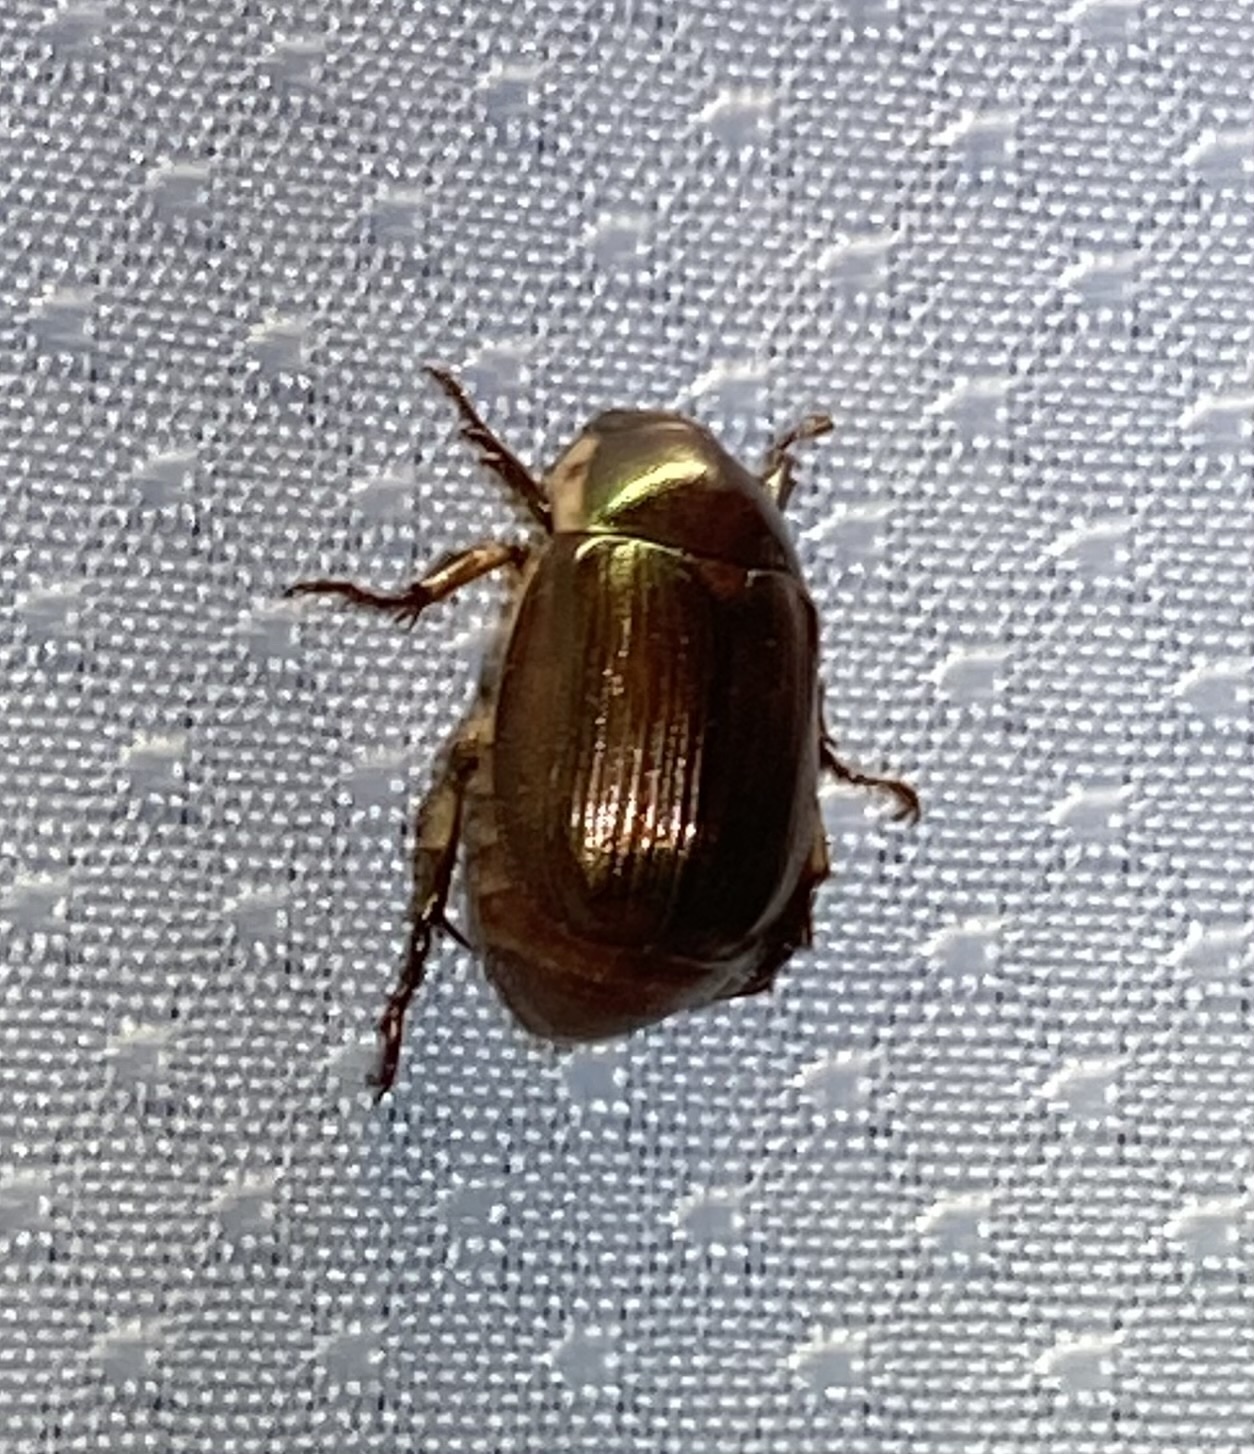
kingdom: Animalia
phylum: Arthropoda
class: Insecta
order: Coleoptera
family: Scarabaeidae
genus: Callistethus
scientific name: Callistethus marginatus
